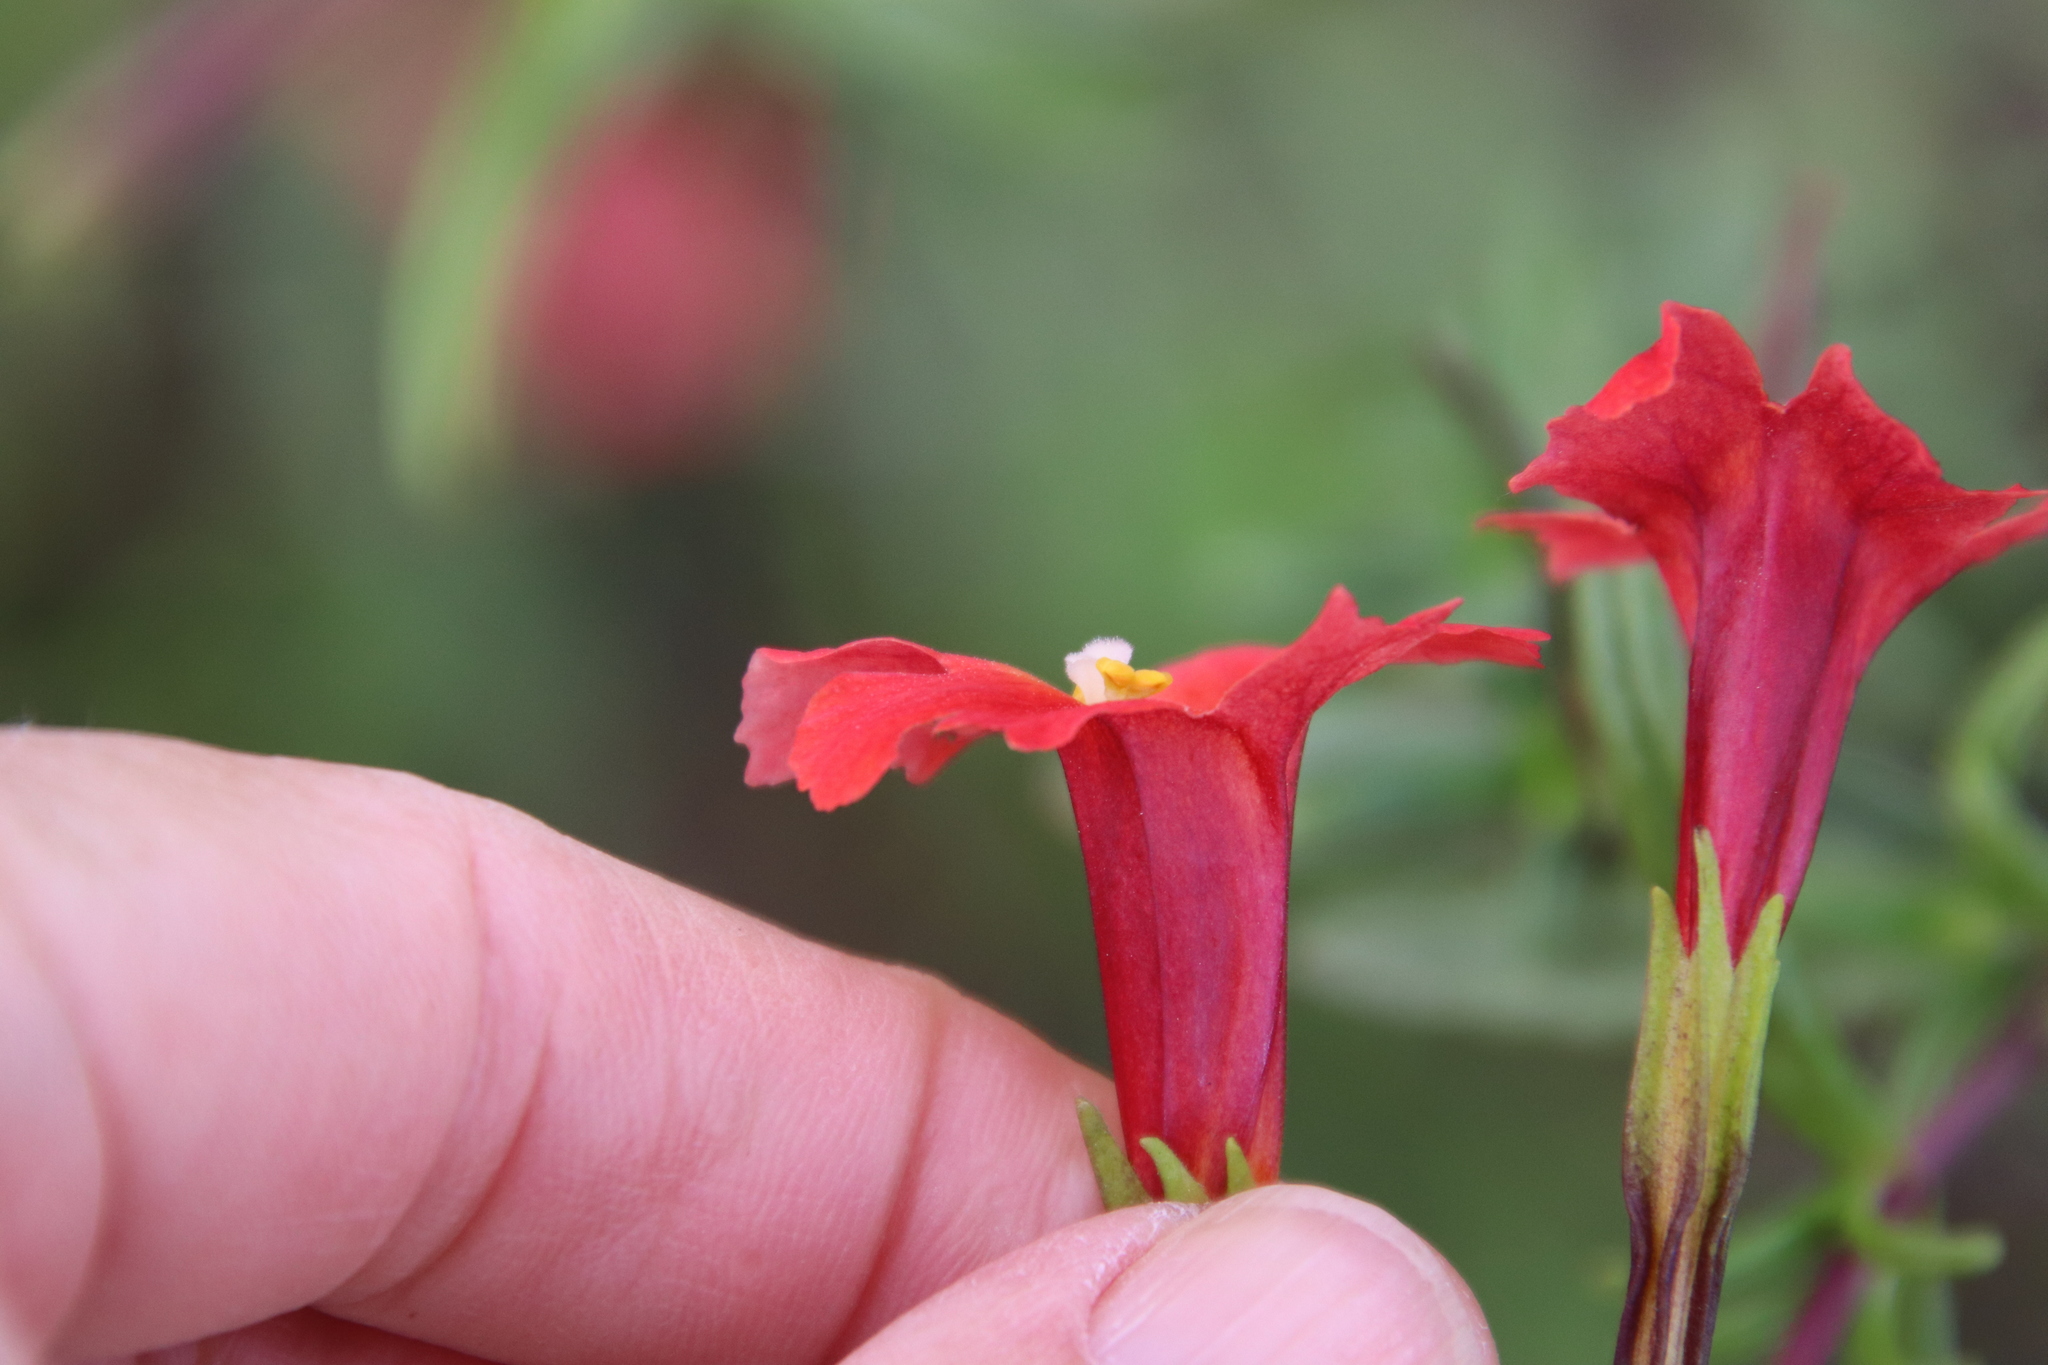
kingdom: Plantae
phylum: Tracheophyta
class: Magnoliopsida
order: Lamiales
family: Phrymaceae
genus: Diplacus
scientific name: Diplacus puniceus
